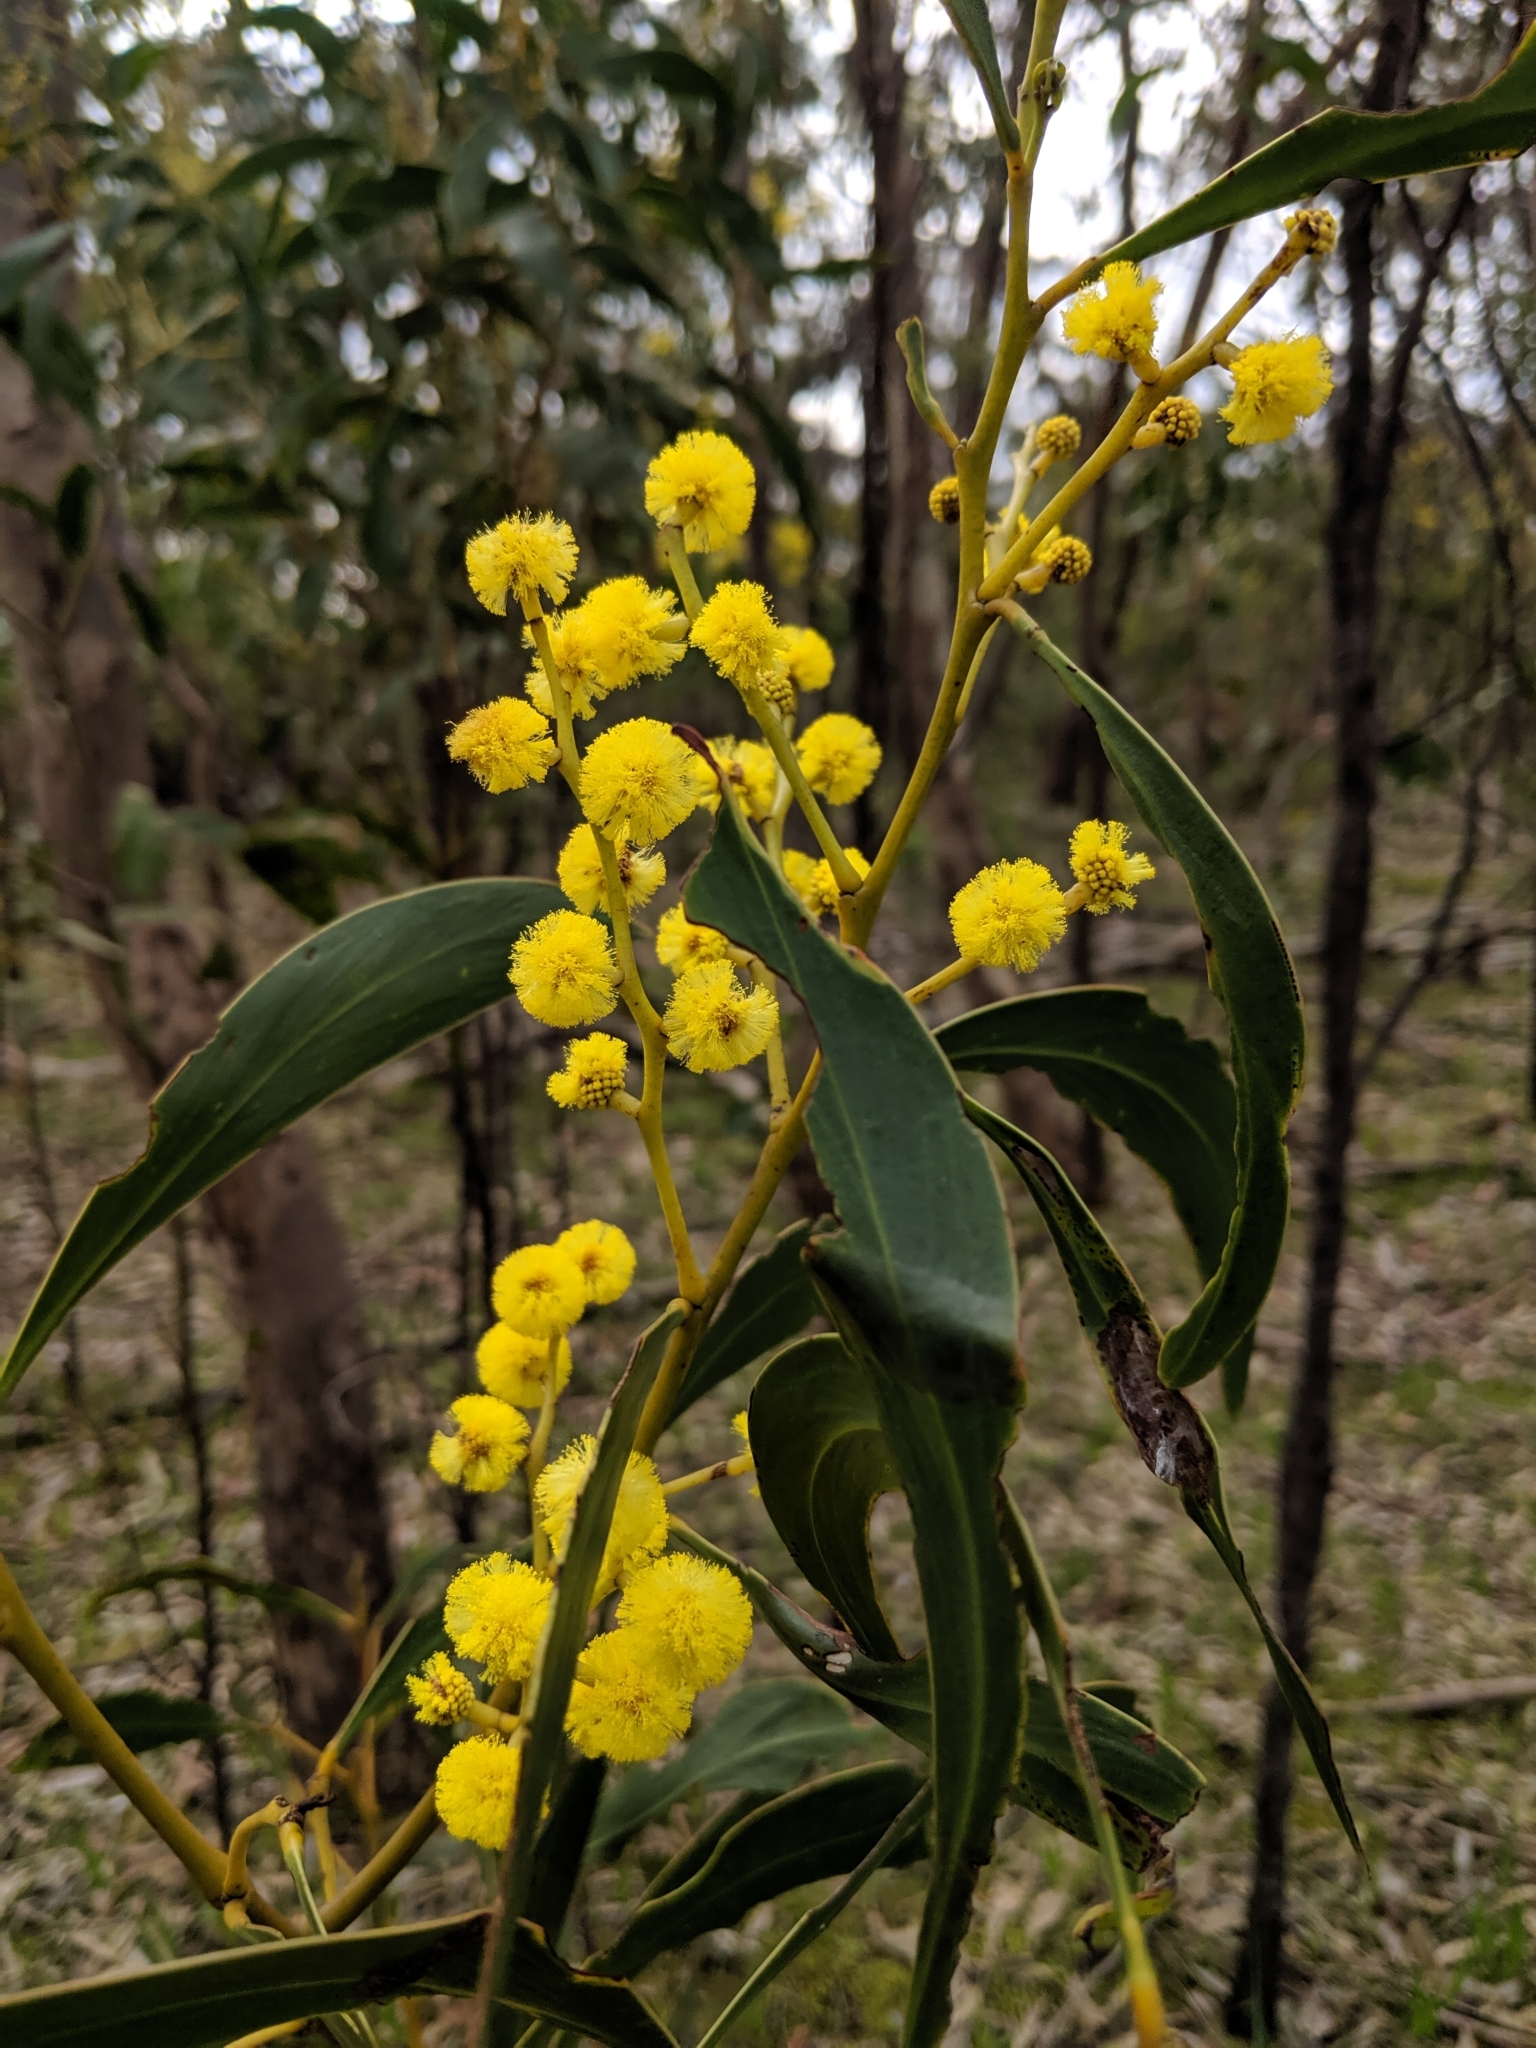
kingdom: Plantae
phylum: Tracheophyta
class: Magnoliopsida
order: Fabales
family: Fabaceae
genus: Acacia
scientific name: Acacia pycnantha
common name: Golden wattle
